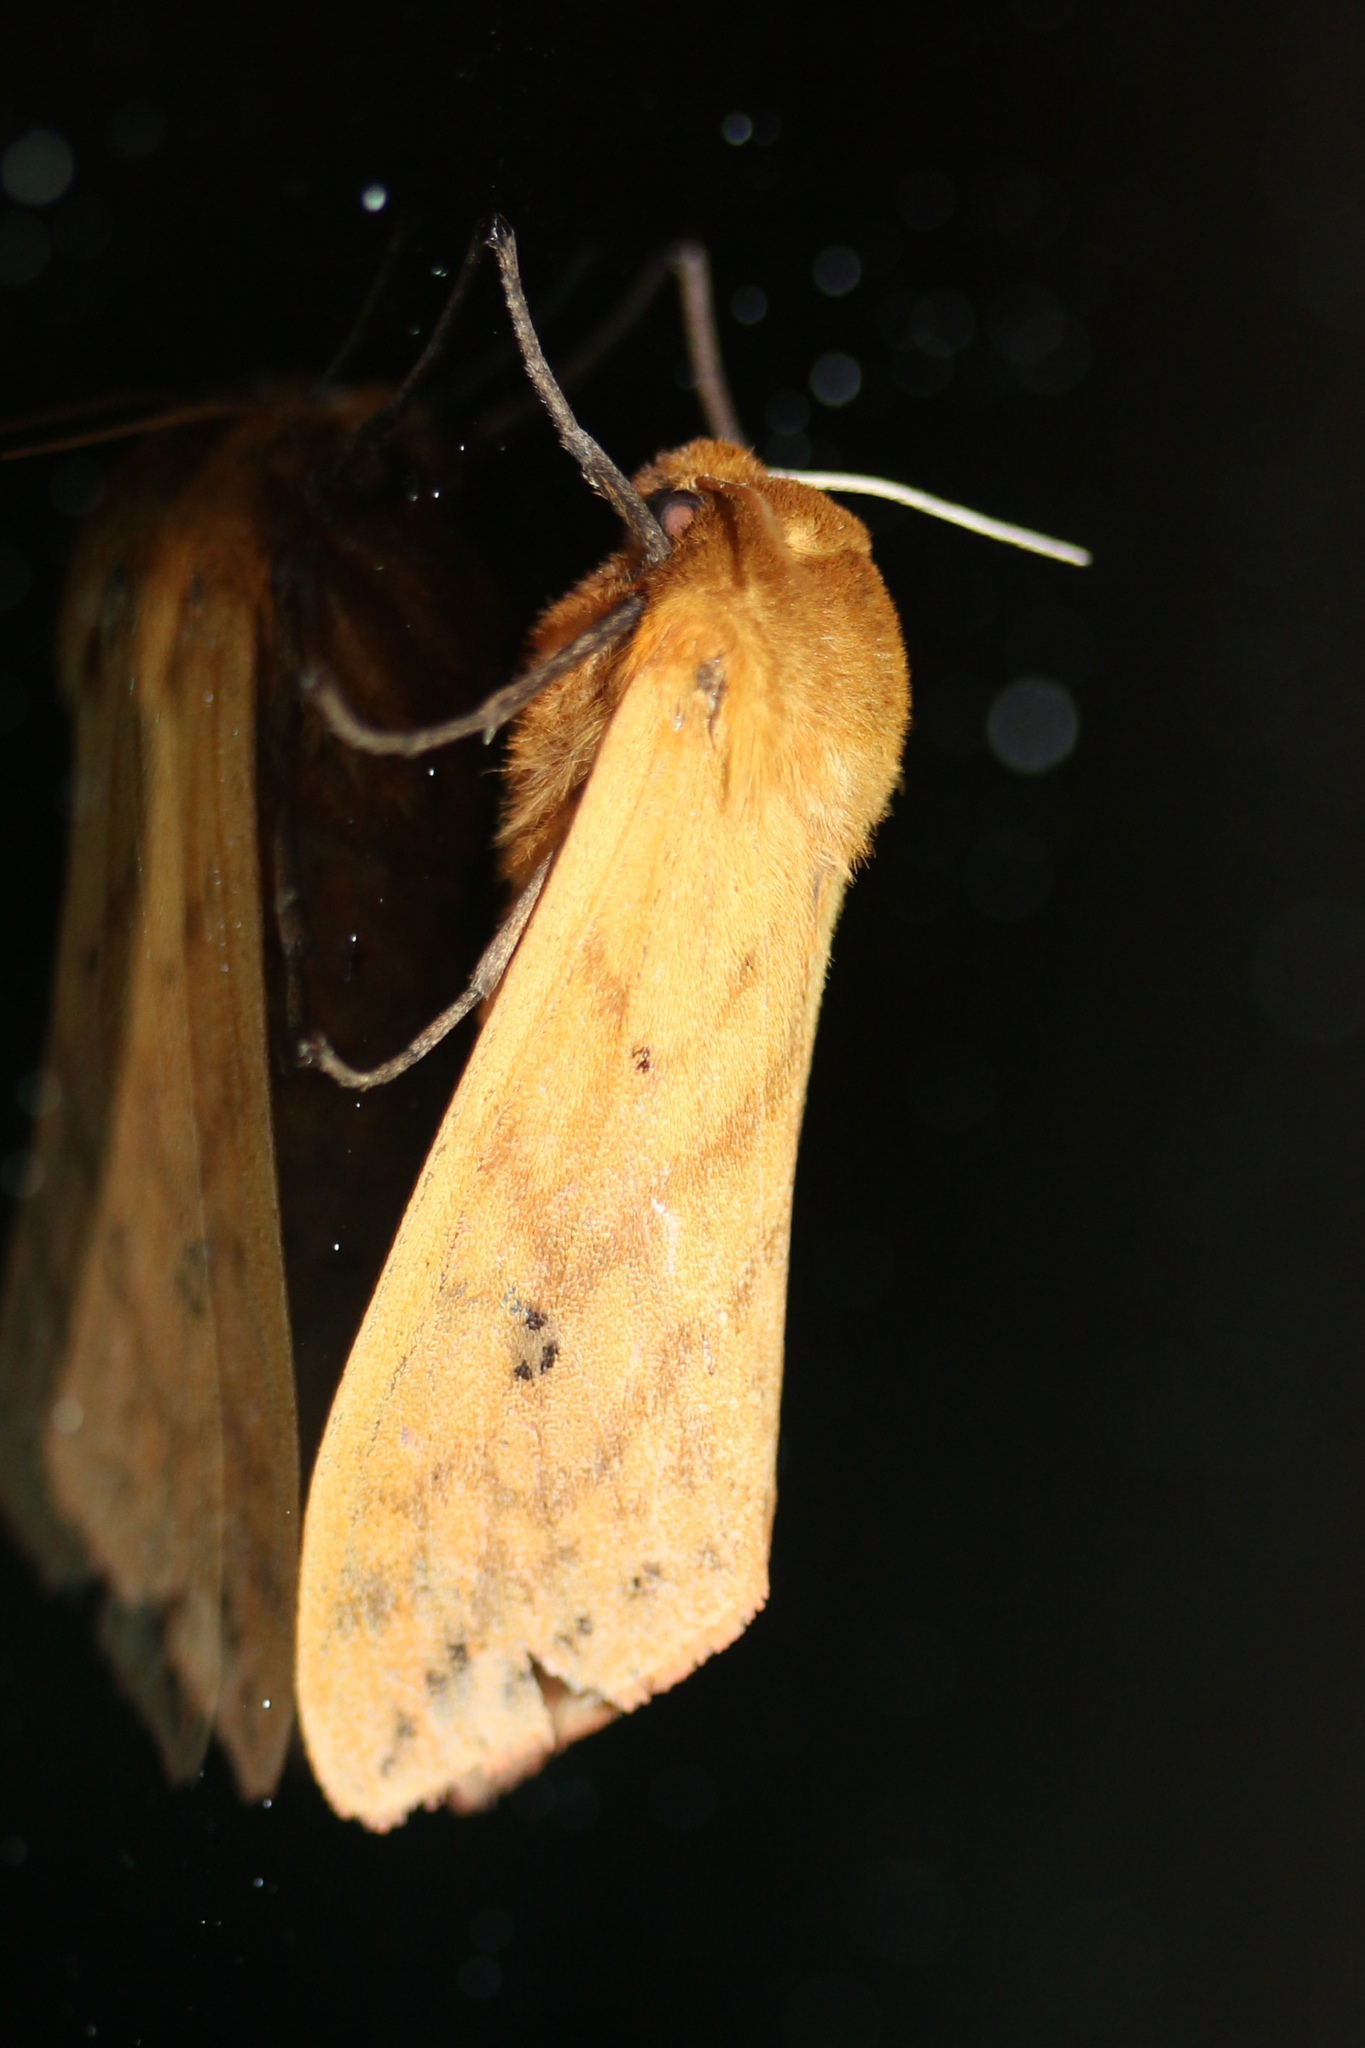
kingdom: Animalia
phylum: Arthropoda
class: Insecta
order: Lepidoptera
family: Erebidae
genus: Pyrrharctia
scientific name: Pyrrharctia isabella
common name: Isabella tiger moth
